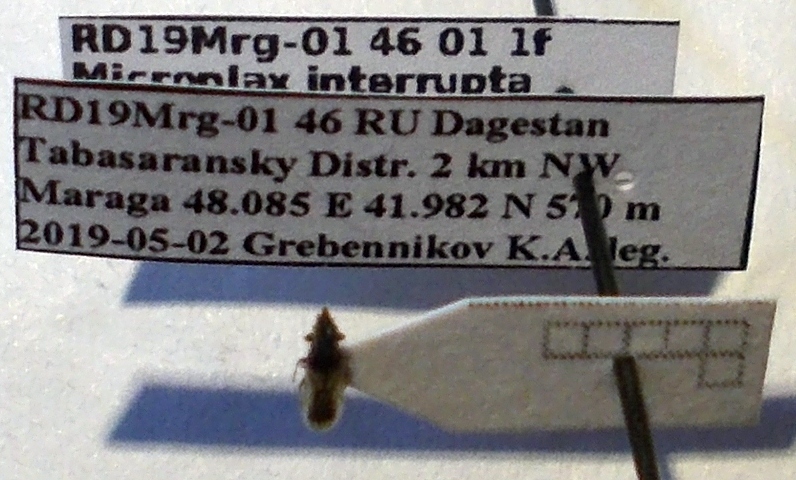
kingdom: Animalia
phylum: Arthropoda
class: Insecta
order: Hemiptera
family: Oxycarenidae
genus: Microplax
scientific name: Microplax interrupta
